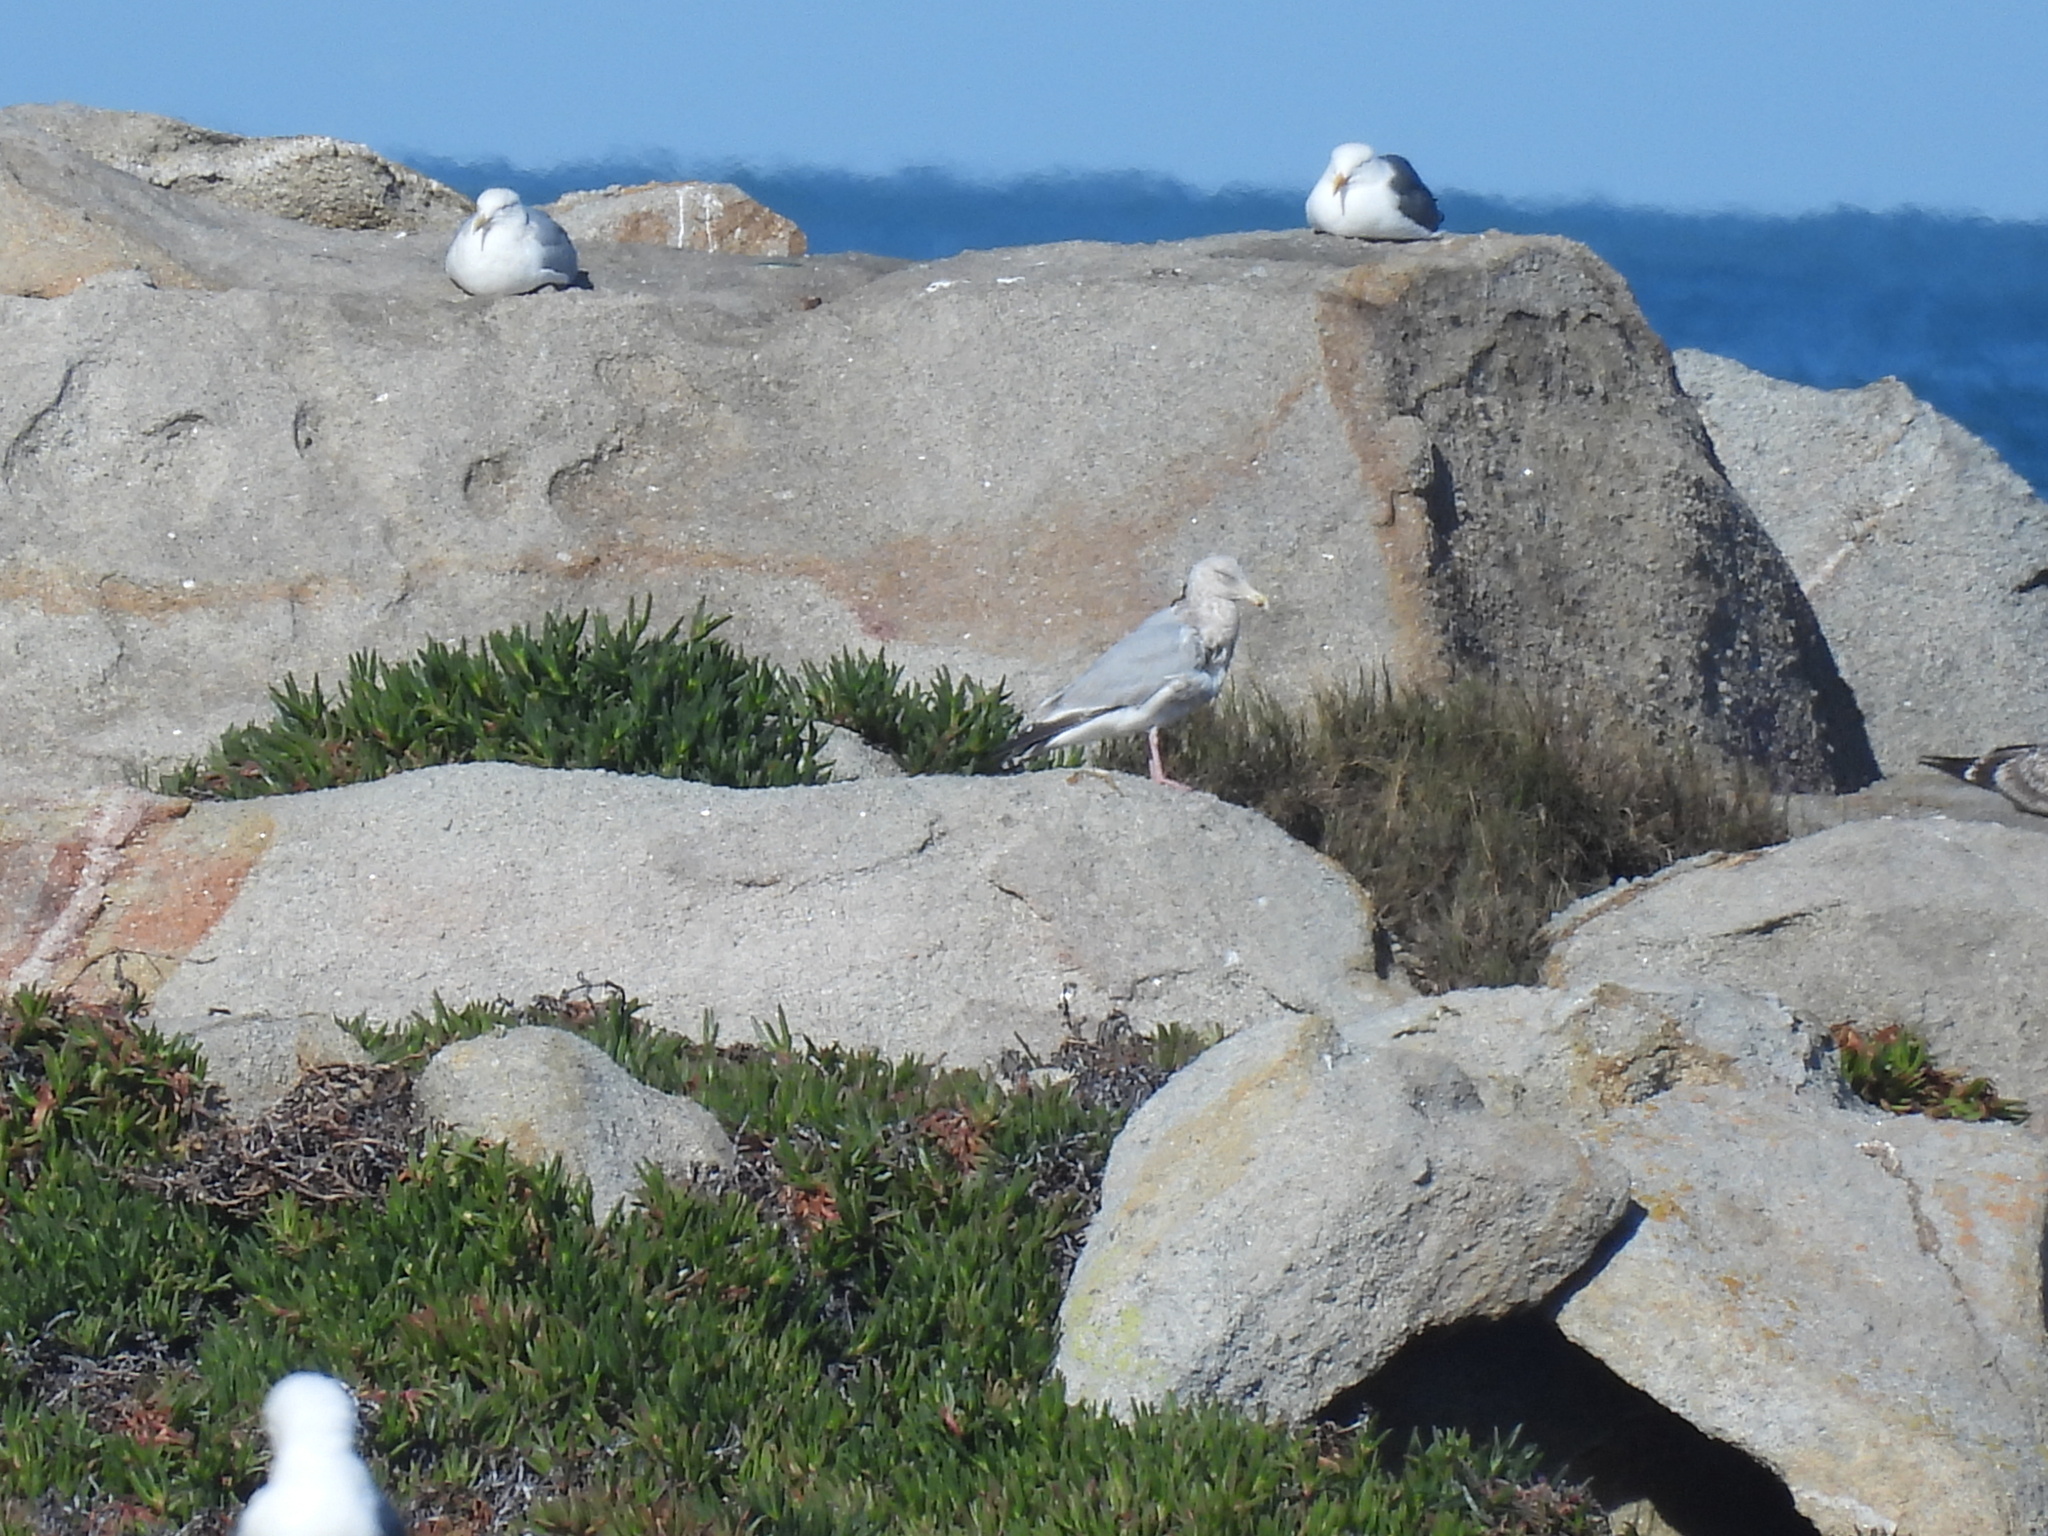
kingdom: Animalia
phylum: Chordata
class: Aves
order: Charadriiformes
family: Laridae
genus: Larus
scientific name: Larus argentatus
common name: Herring gull
